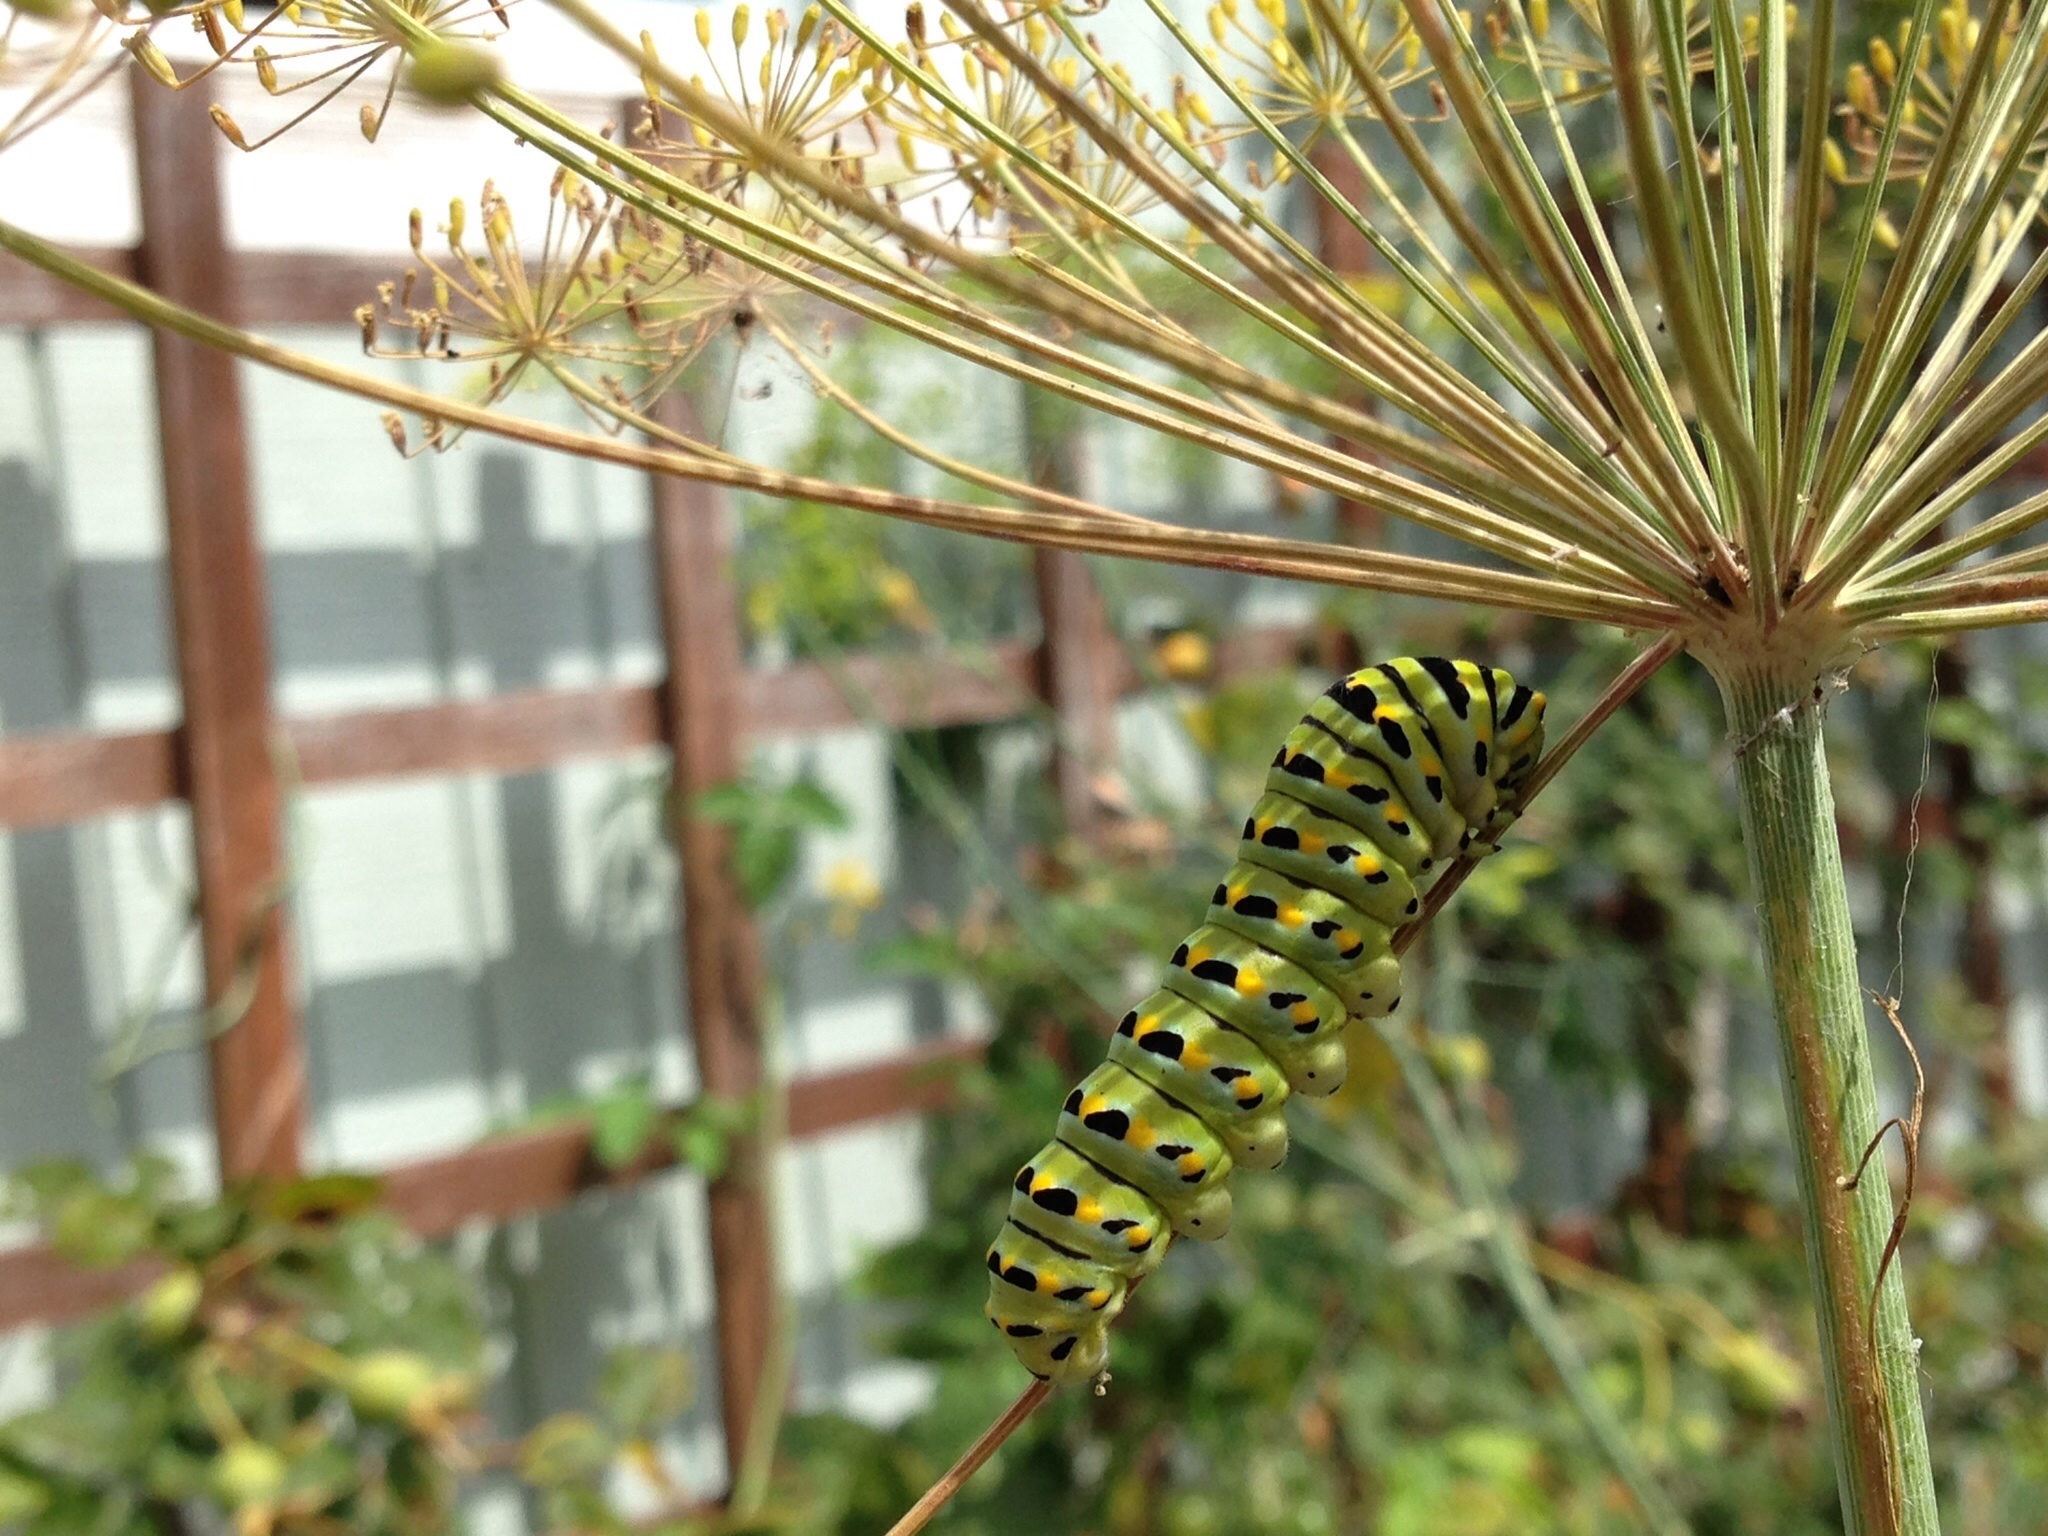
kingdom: Animalia
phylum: Arthropoda
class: Insecta
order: Lepidoptera
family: Papilionidae
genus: Papilio
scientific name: Papilio zelicaon
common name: Anise swallowtail
